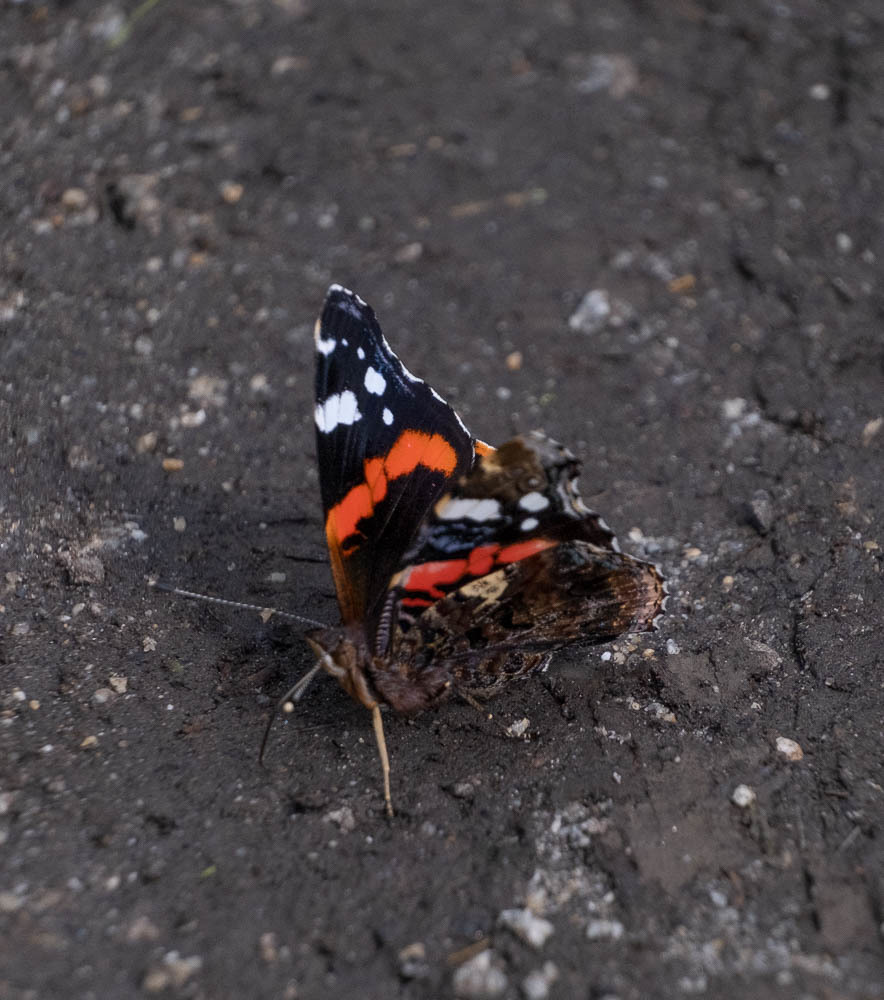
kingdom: Animalia
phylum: Arthropoda
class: Insecta
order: Lepidoptera
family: Nymphalidae
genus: Vanessa
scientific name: Vanessa atalanta
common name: Red admiral
